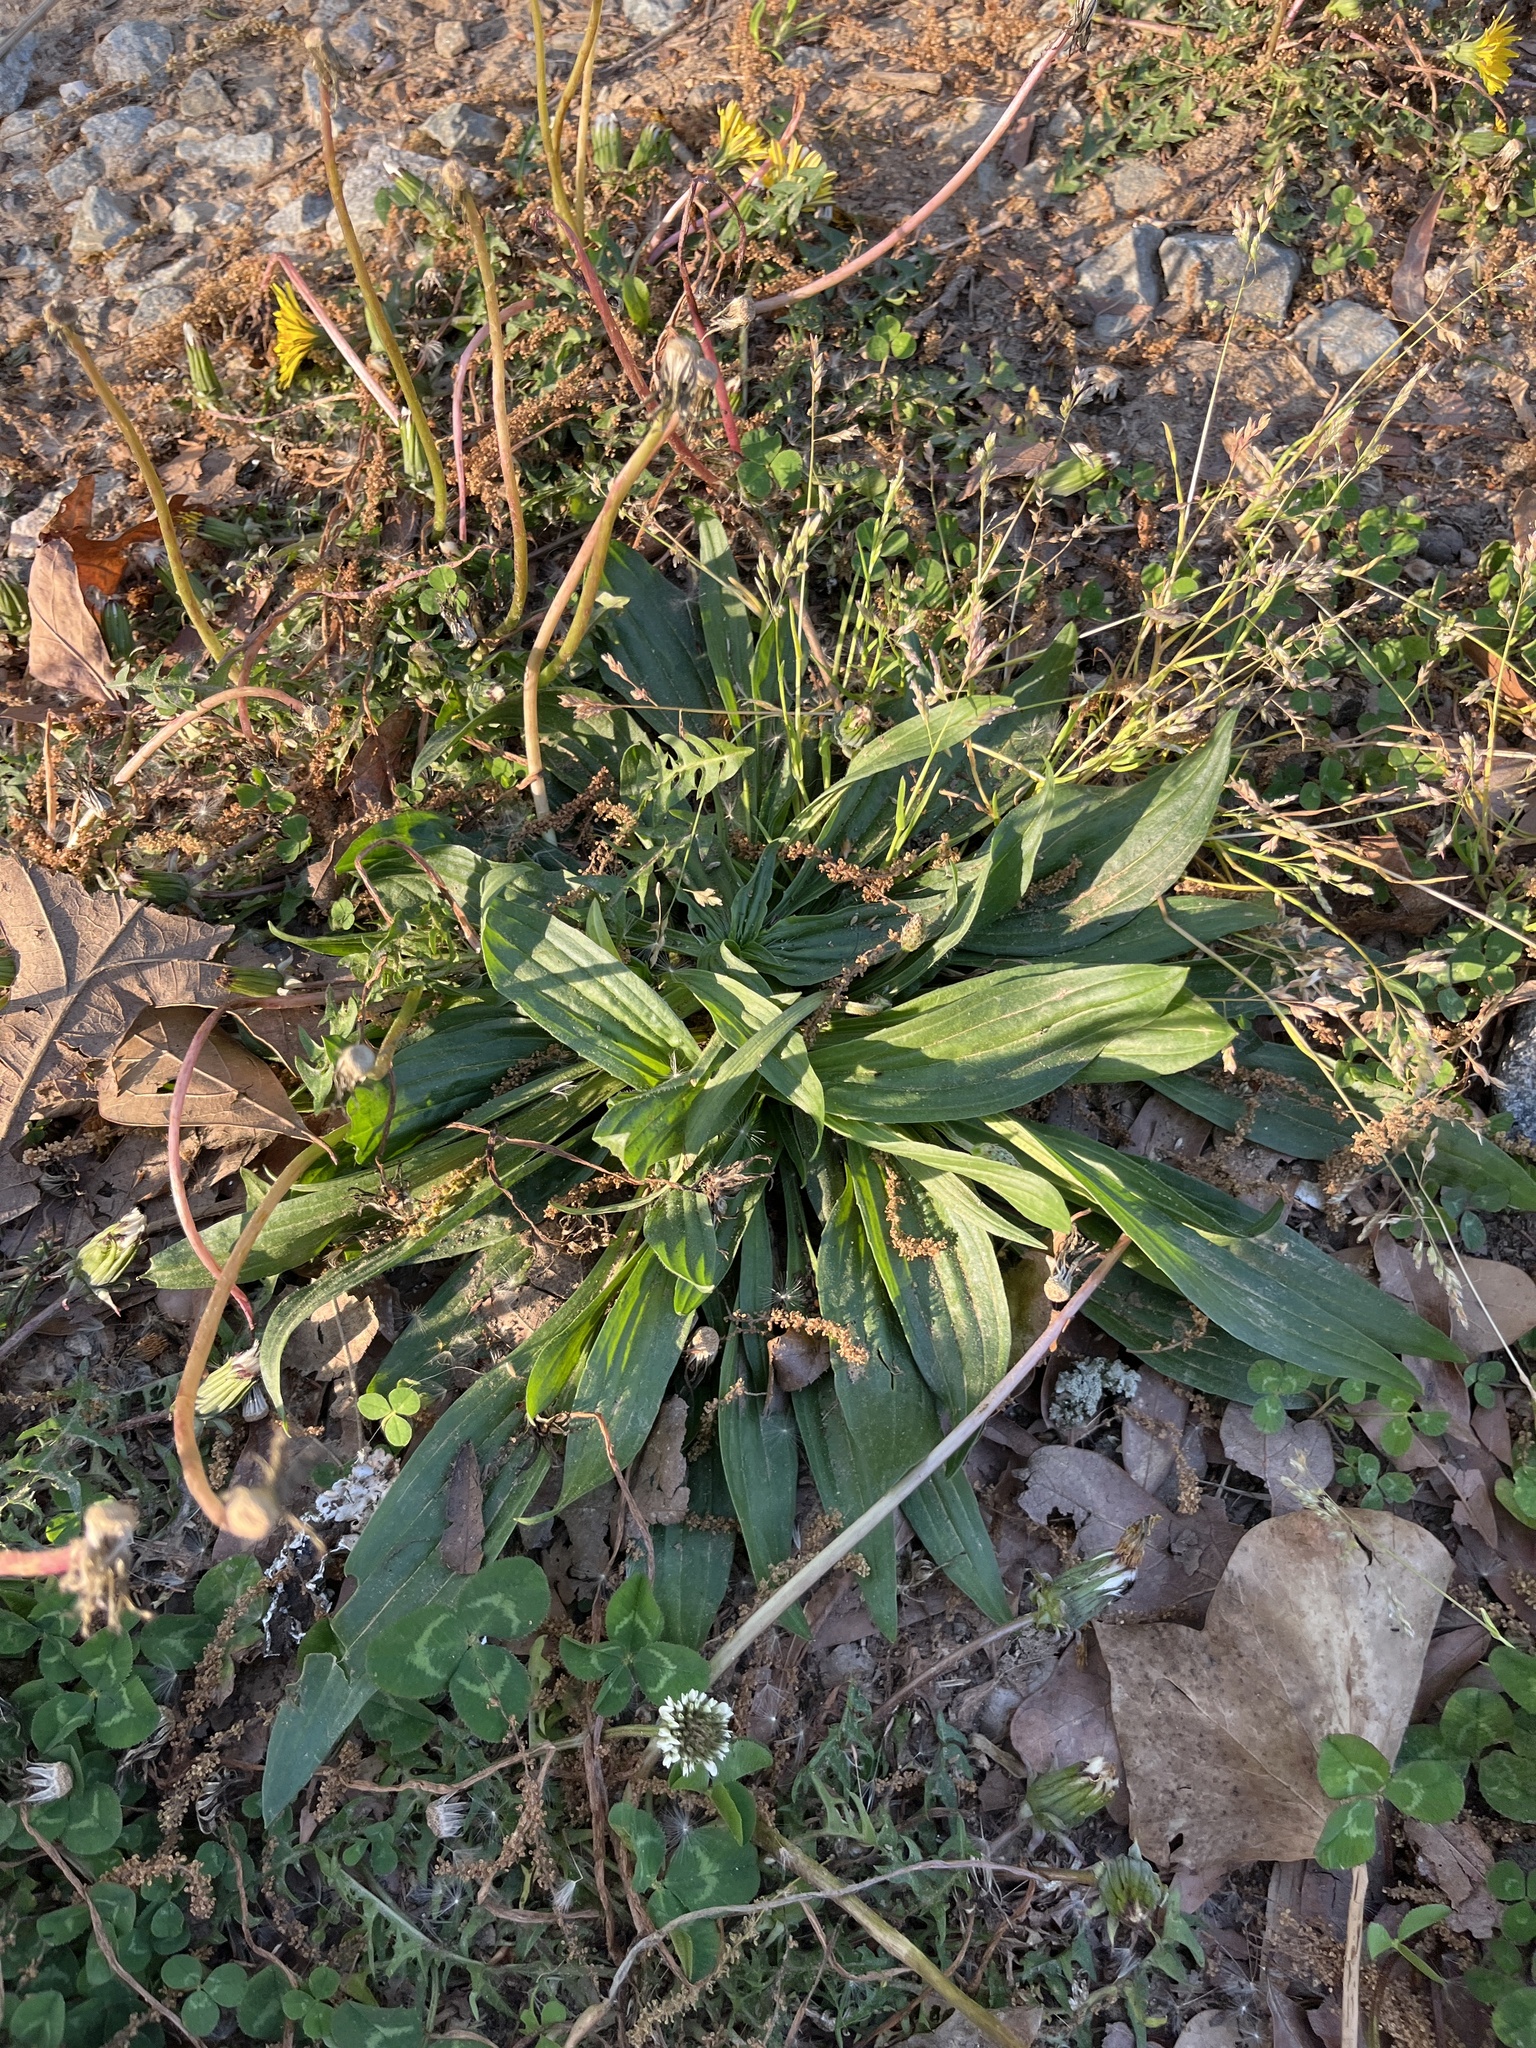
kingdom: Plantae
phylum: Tracheophyta
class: Magnoliopsida
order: Lamiales
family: Plantaginaceae
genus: Plantago
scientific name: Plantago lanceolata
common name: Ribwort plantain
